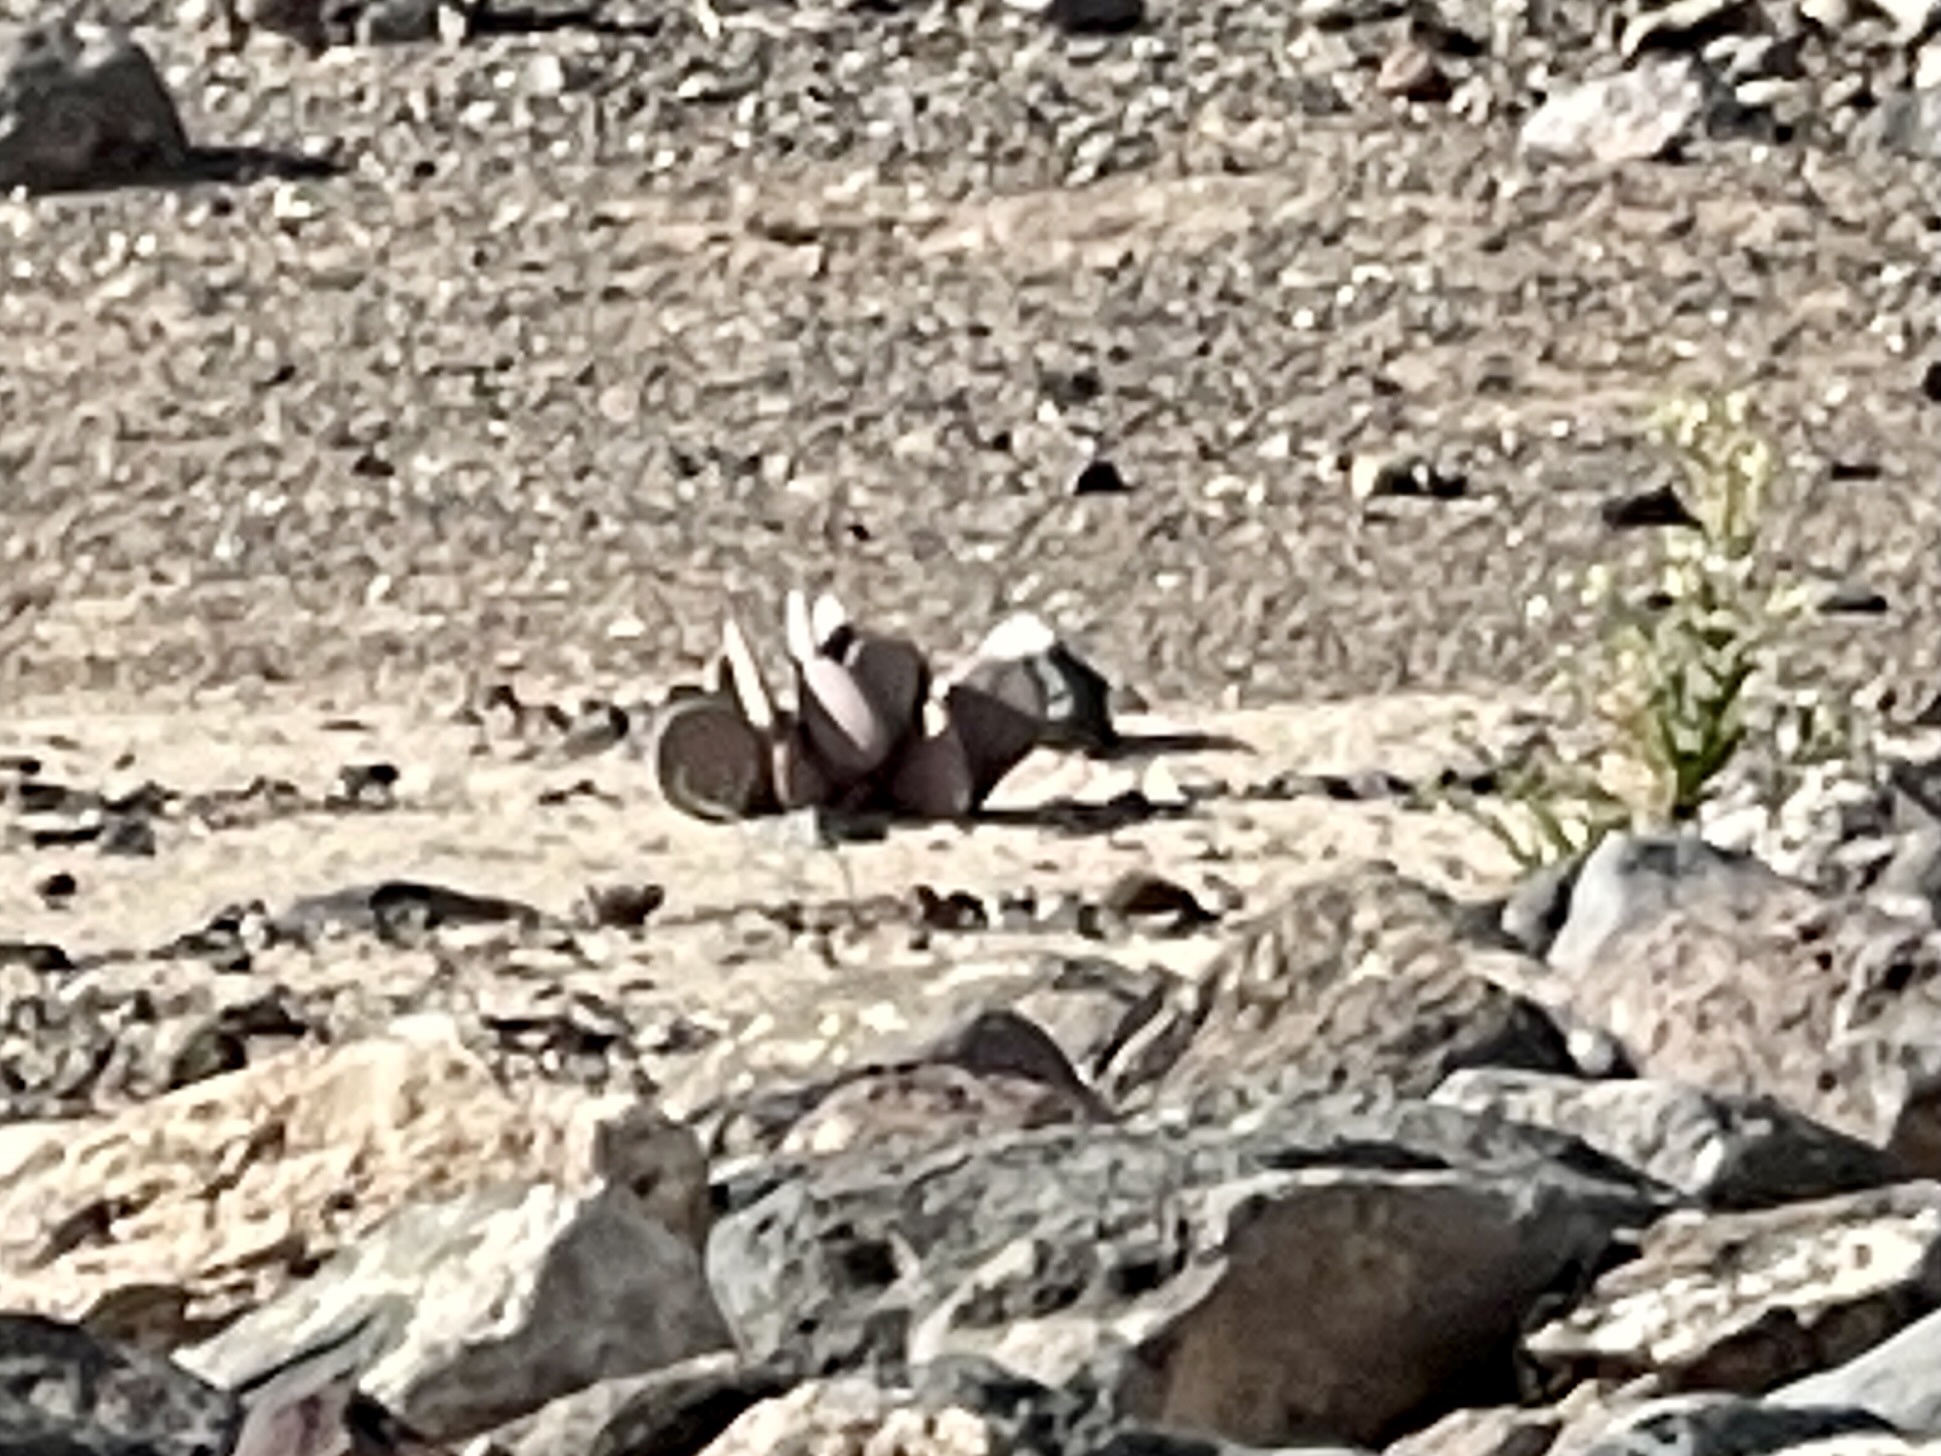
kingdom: Plantae
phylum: Tracheophyta
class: Magnoliopsida
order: Caryophyllales
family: Cactaceae
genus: Opuntia
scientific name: Opuntia basilaris
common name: Beavertail prickly-pear
